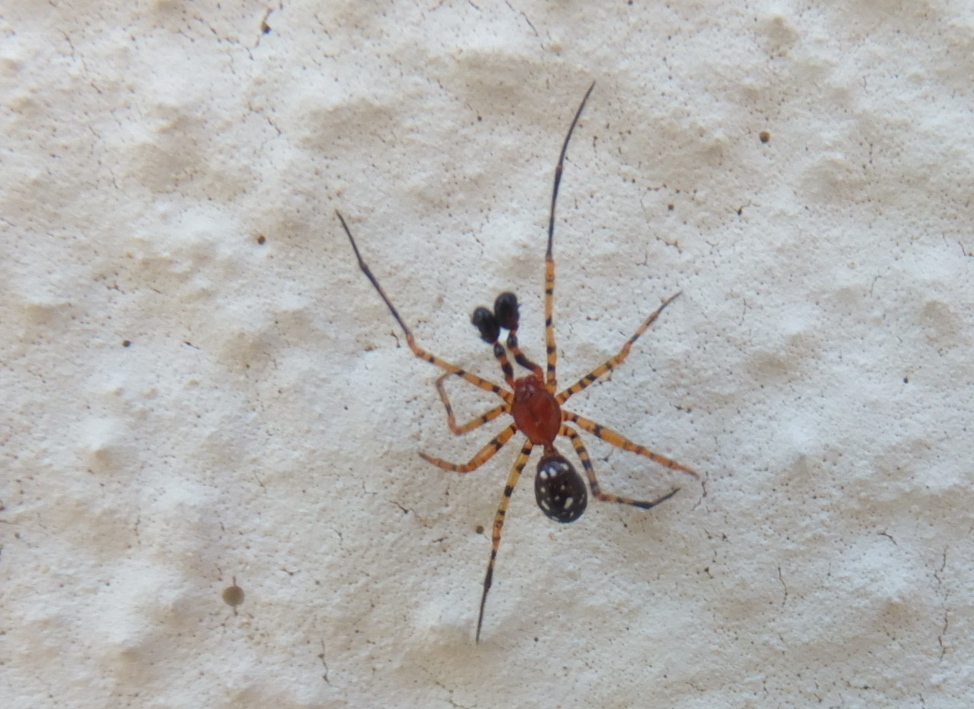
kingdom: Animalia
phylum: Arthropoda
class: Arachnida
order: Araneae
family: Theridiidae
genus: Neottiura
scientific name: Neottiura herbigrada
